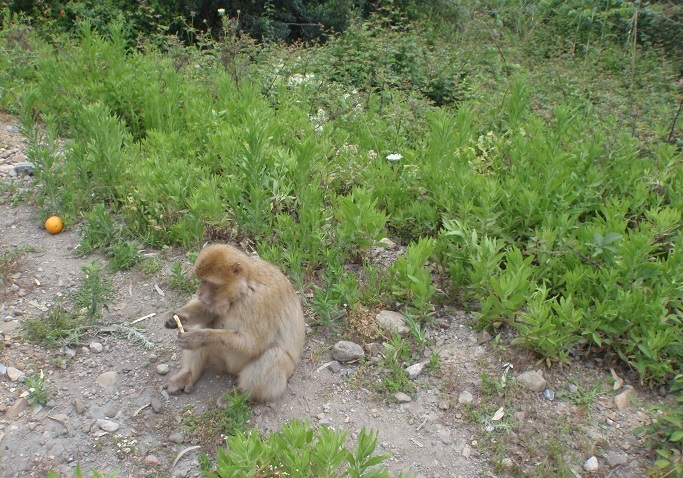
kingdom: Animalia
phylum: Chordata
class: Mammalia
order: Primates
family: Cercopithecidae
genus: Macaca
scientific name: Macaca sylvanus
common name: Barbary macaque
